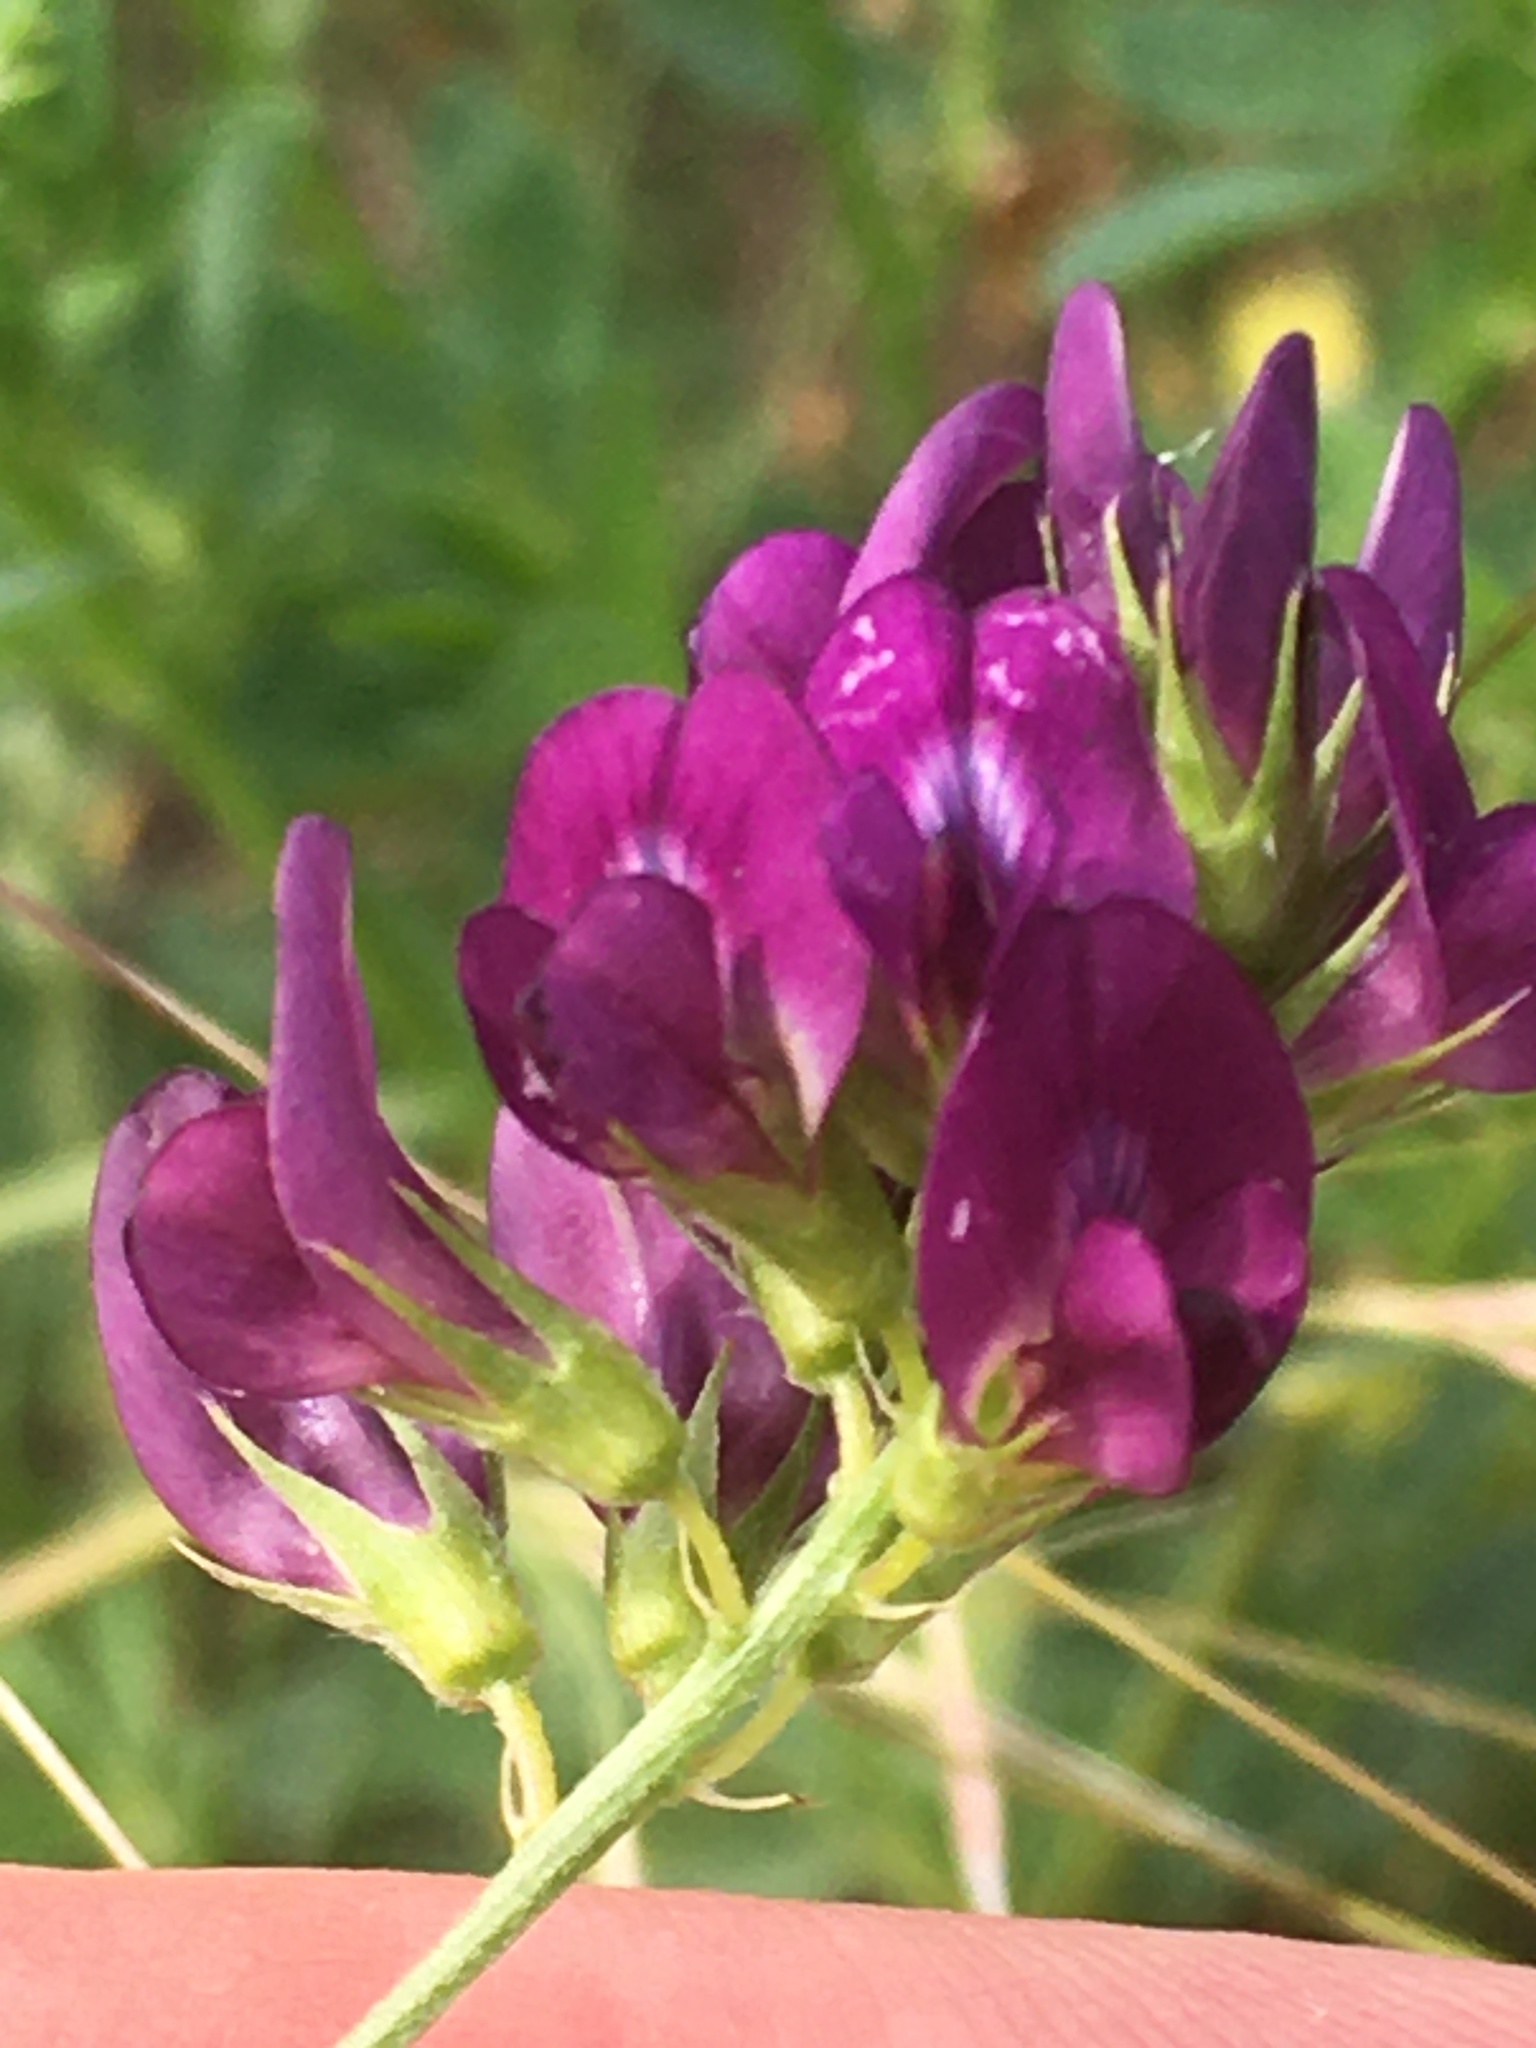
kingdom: Plantae
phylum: Tracheophyta
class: Magnoliopsida
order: Fabales
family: Fabaceae
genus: Medicago
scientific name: Medicago sativa
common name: Alfalfa
